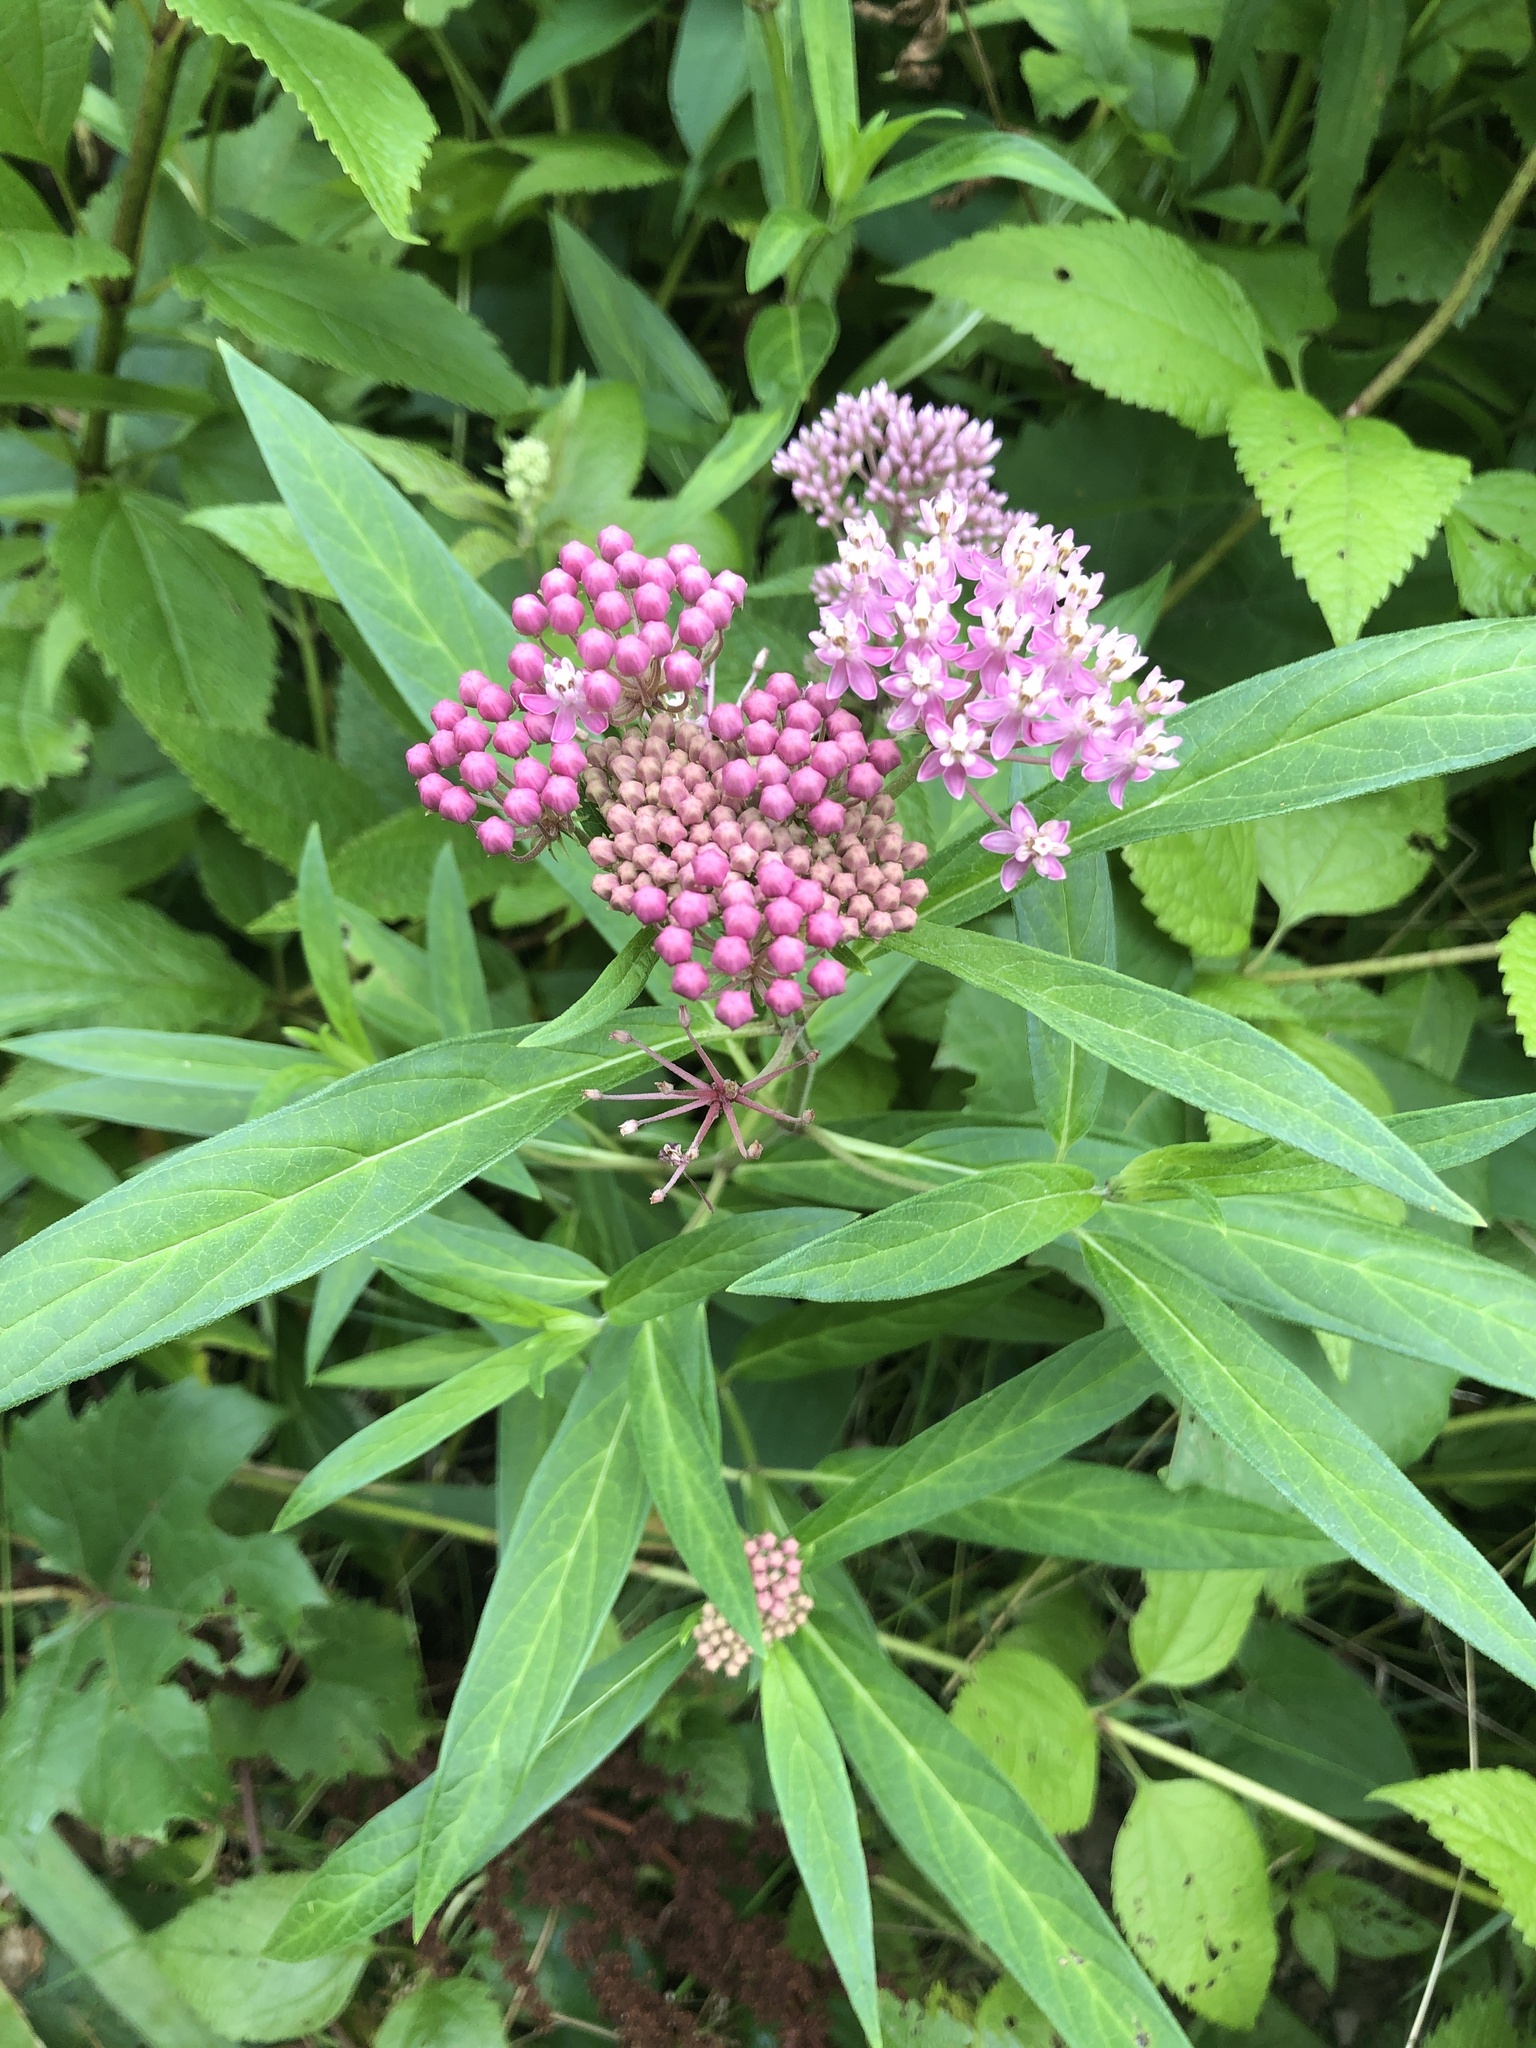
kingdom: Plantae
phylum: Tracheophyta
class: Magnoliopsida
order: Gentianales
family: Apocynaceae
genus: Asclepias
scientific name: Asclepias incarnata
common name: Swamp milkweed
